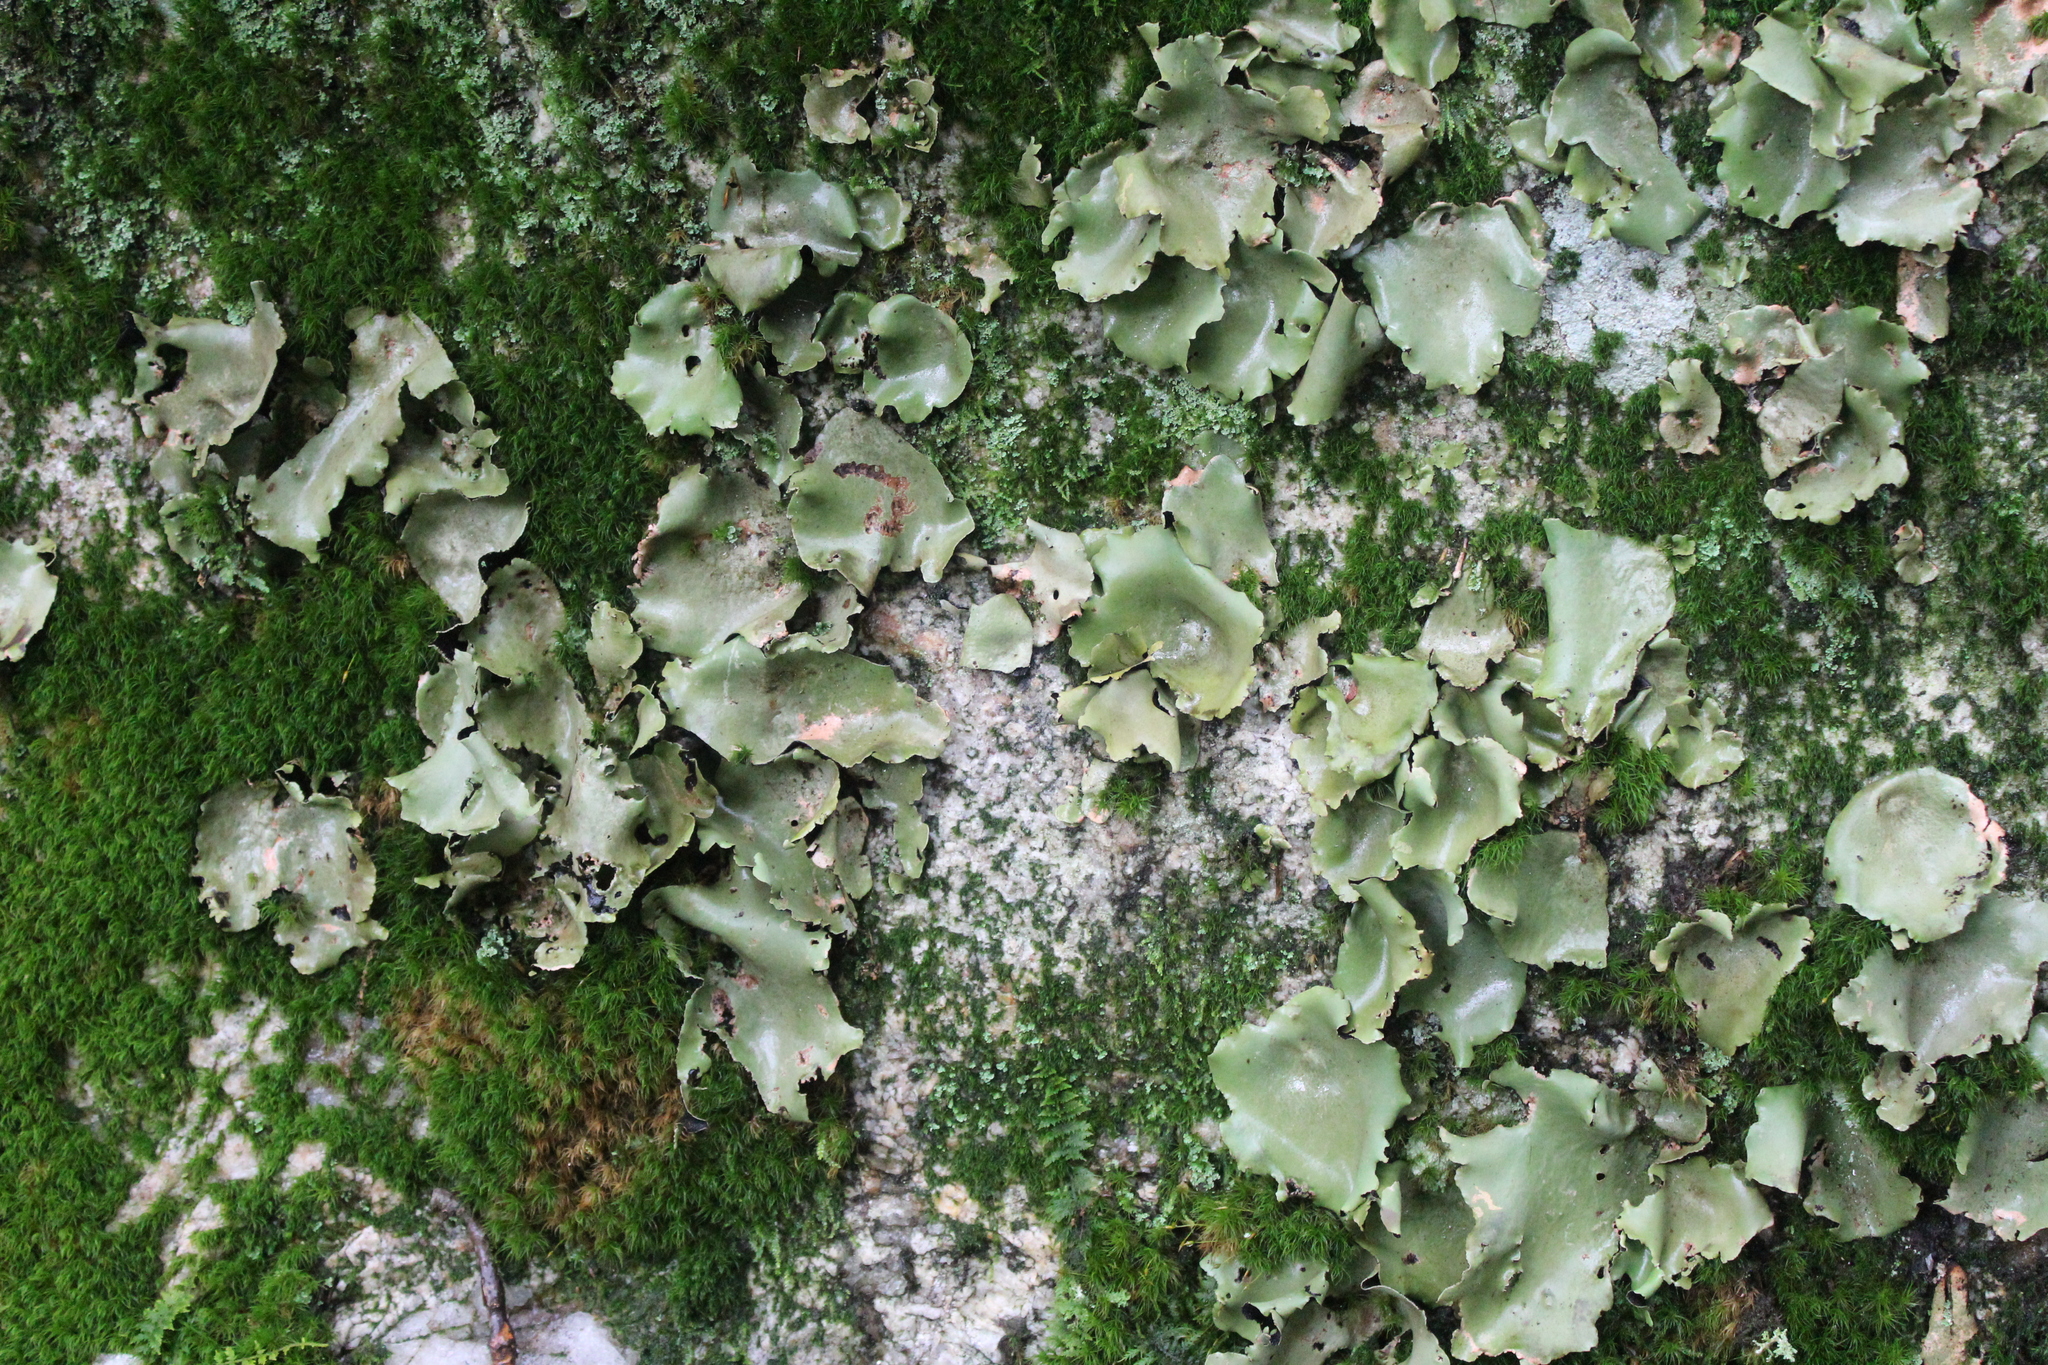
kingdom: Fungi
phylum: Ascomycota
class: Lecanoromycetes
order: Umbilicariales
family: Umbilicariaceae
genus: Umbilicaria
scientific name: Umbilicaria mammulata
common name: Smooth rock tripe
